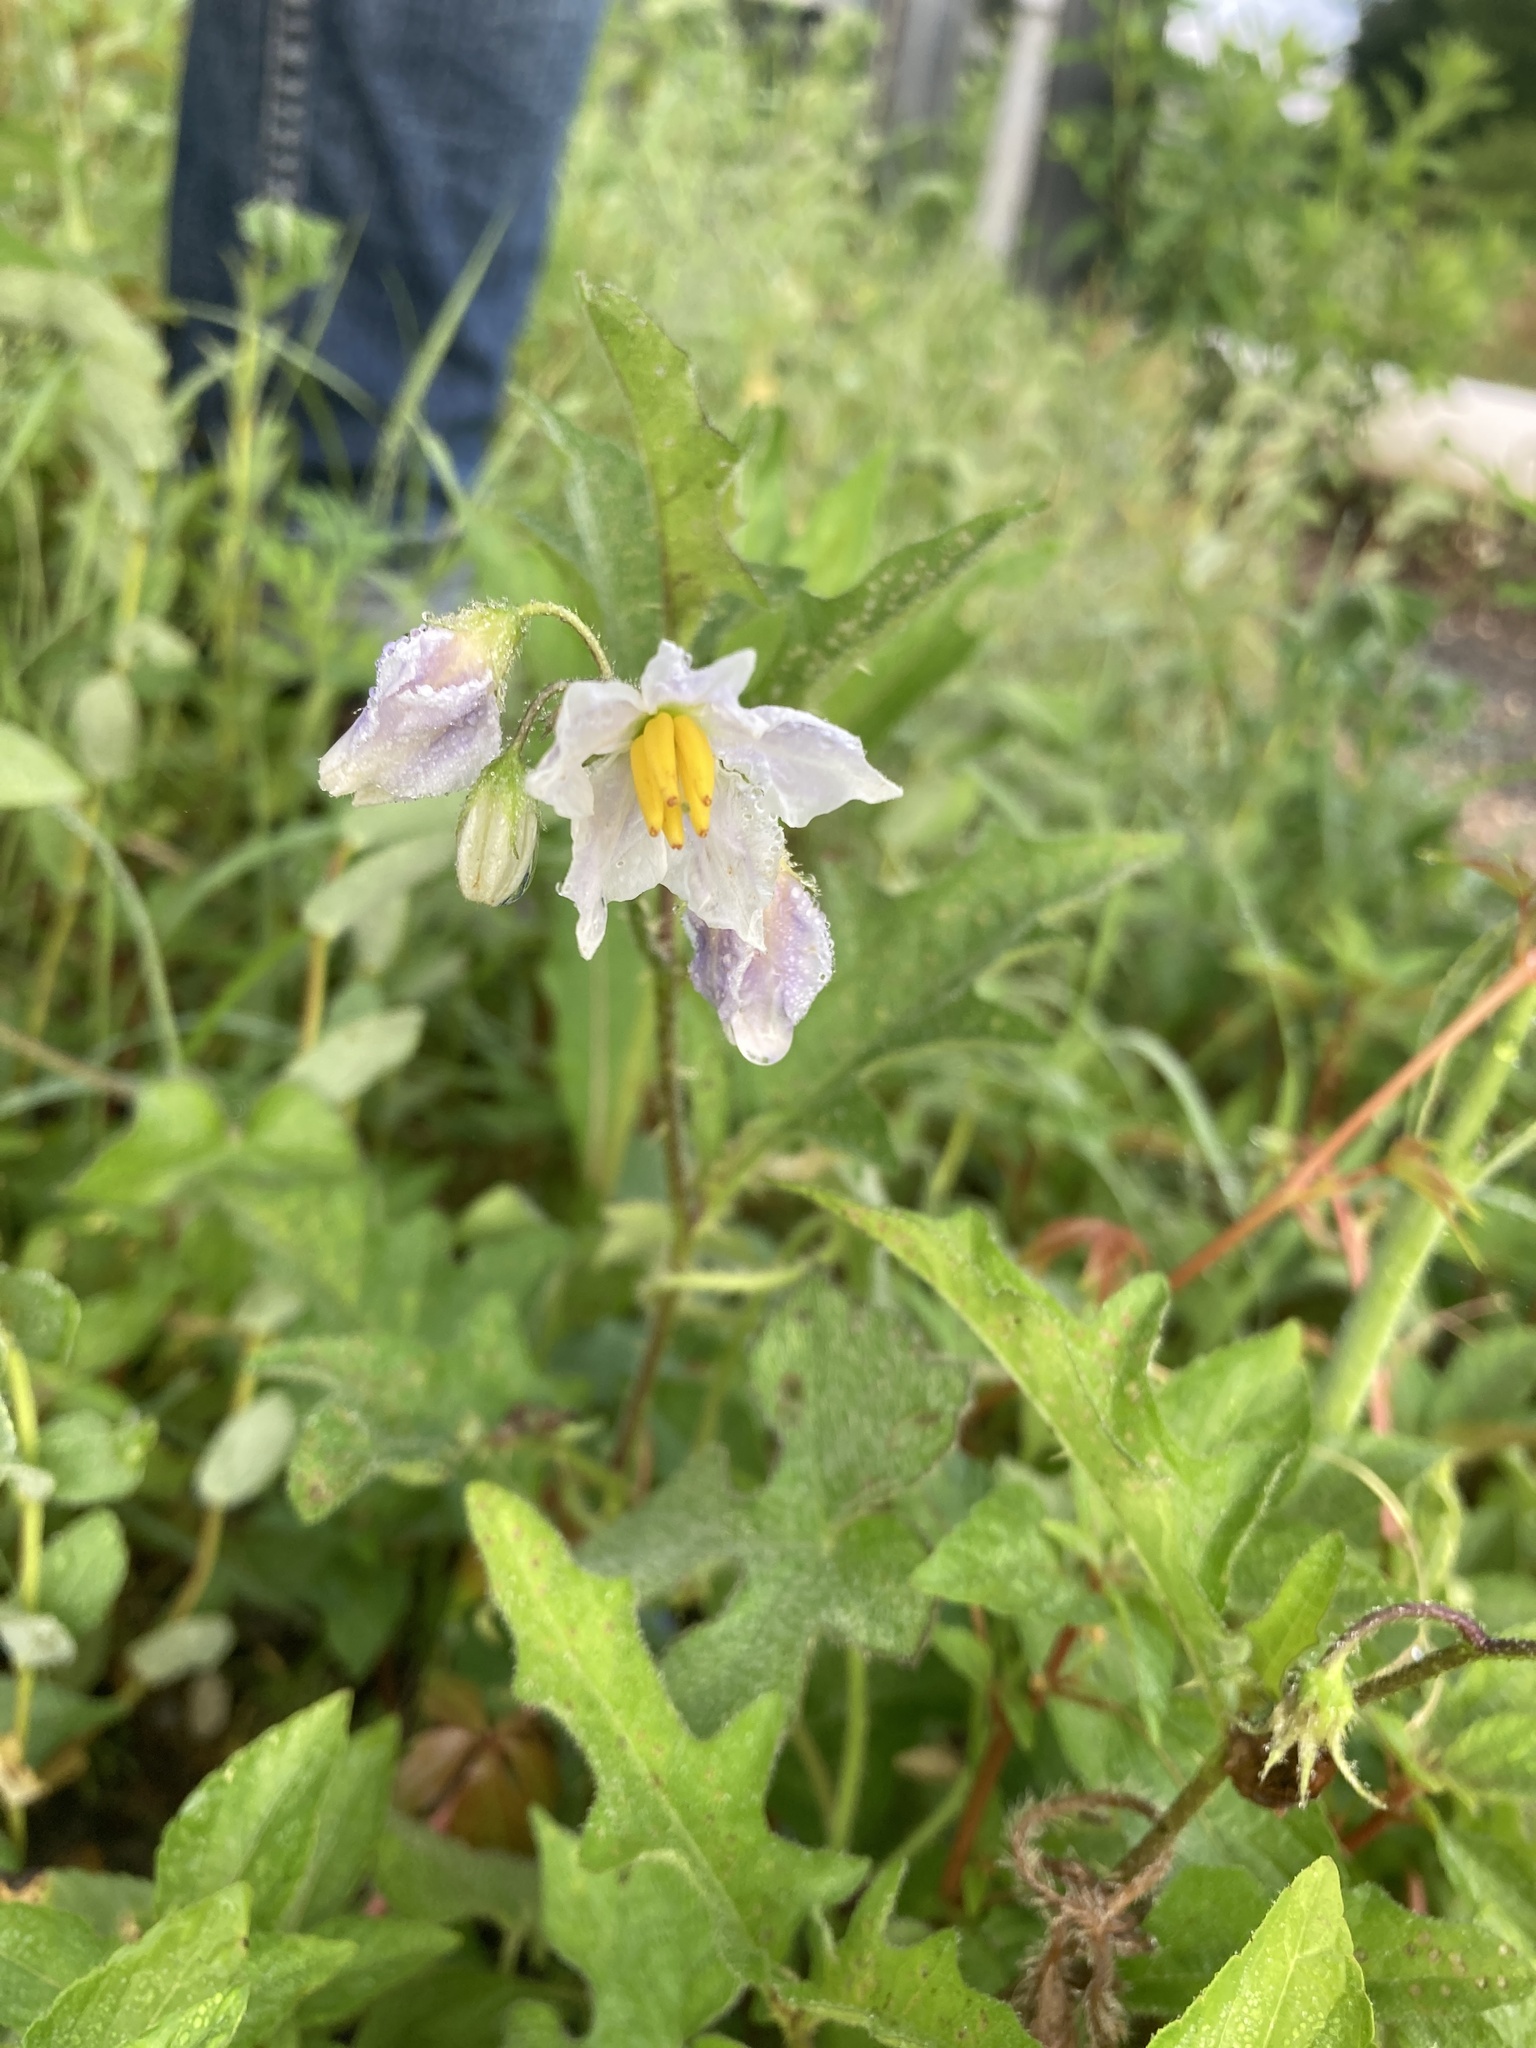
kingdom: Plantae
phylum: Tracheophyta
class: Magnoliopsida
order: Solanales
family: Solanaceae
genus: Solanum
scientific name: Solanum carolinense
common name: Horse-nettle
